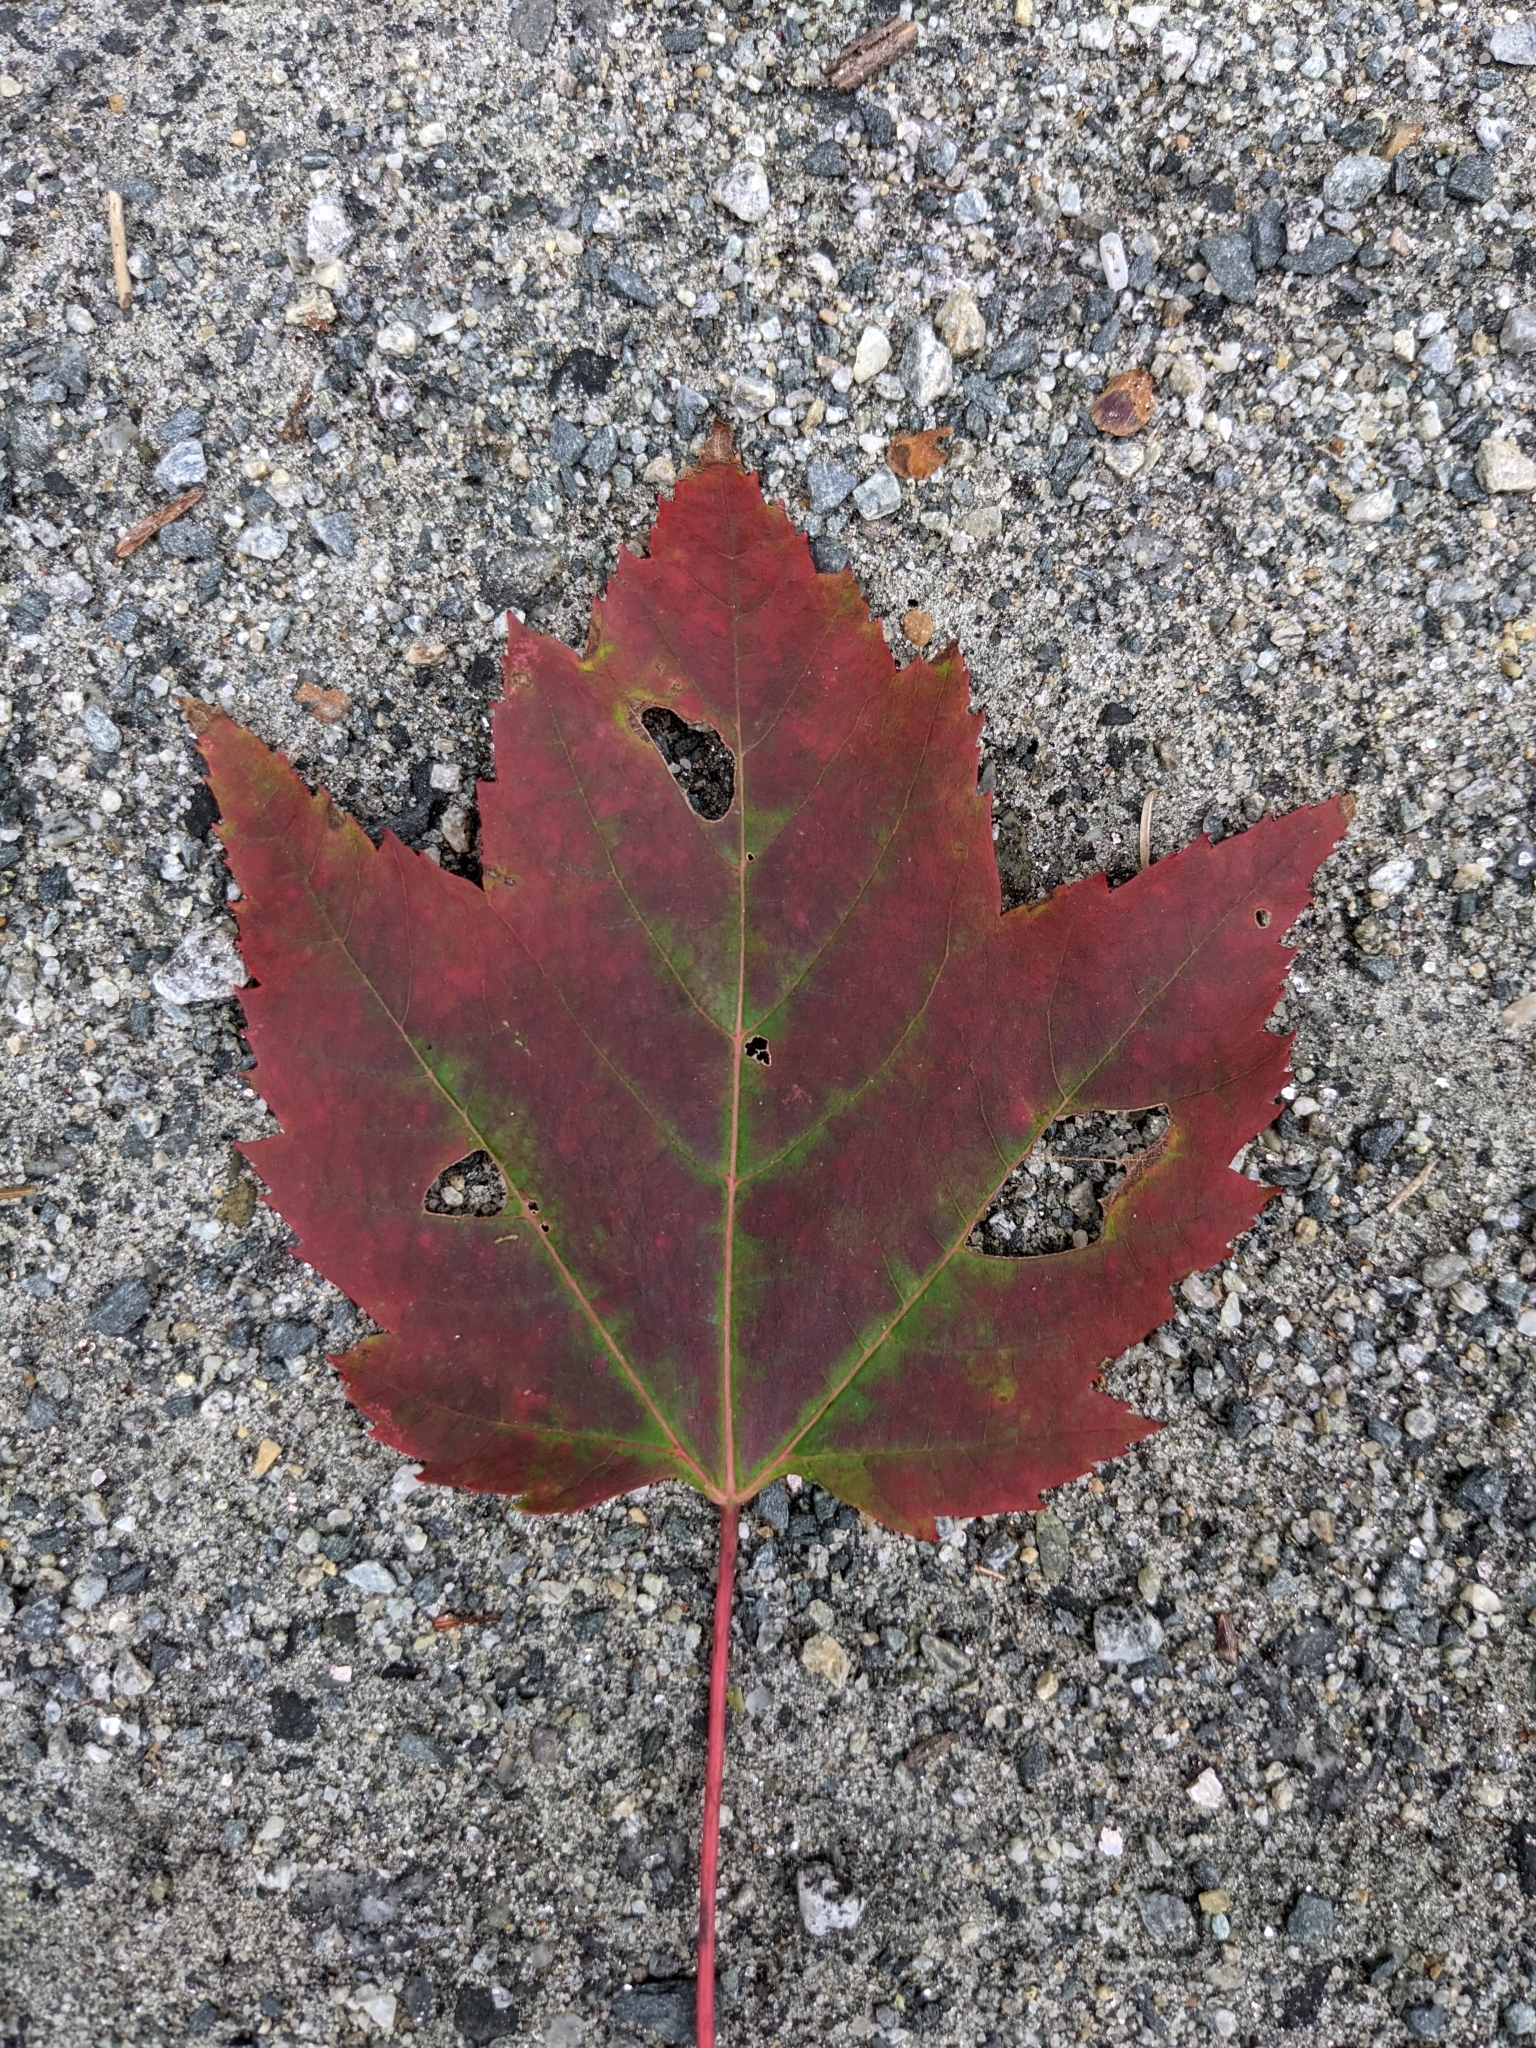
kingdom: Plantae
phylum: Tracheophyta
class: Magnoliopsida
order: Sapindales
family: Sapindaceae
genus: Acer
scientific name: Acer rubrum
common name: Red maple
